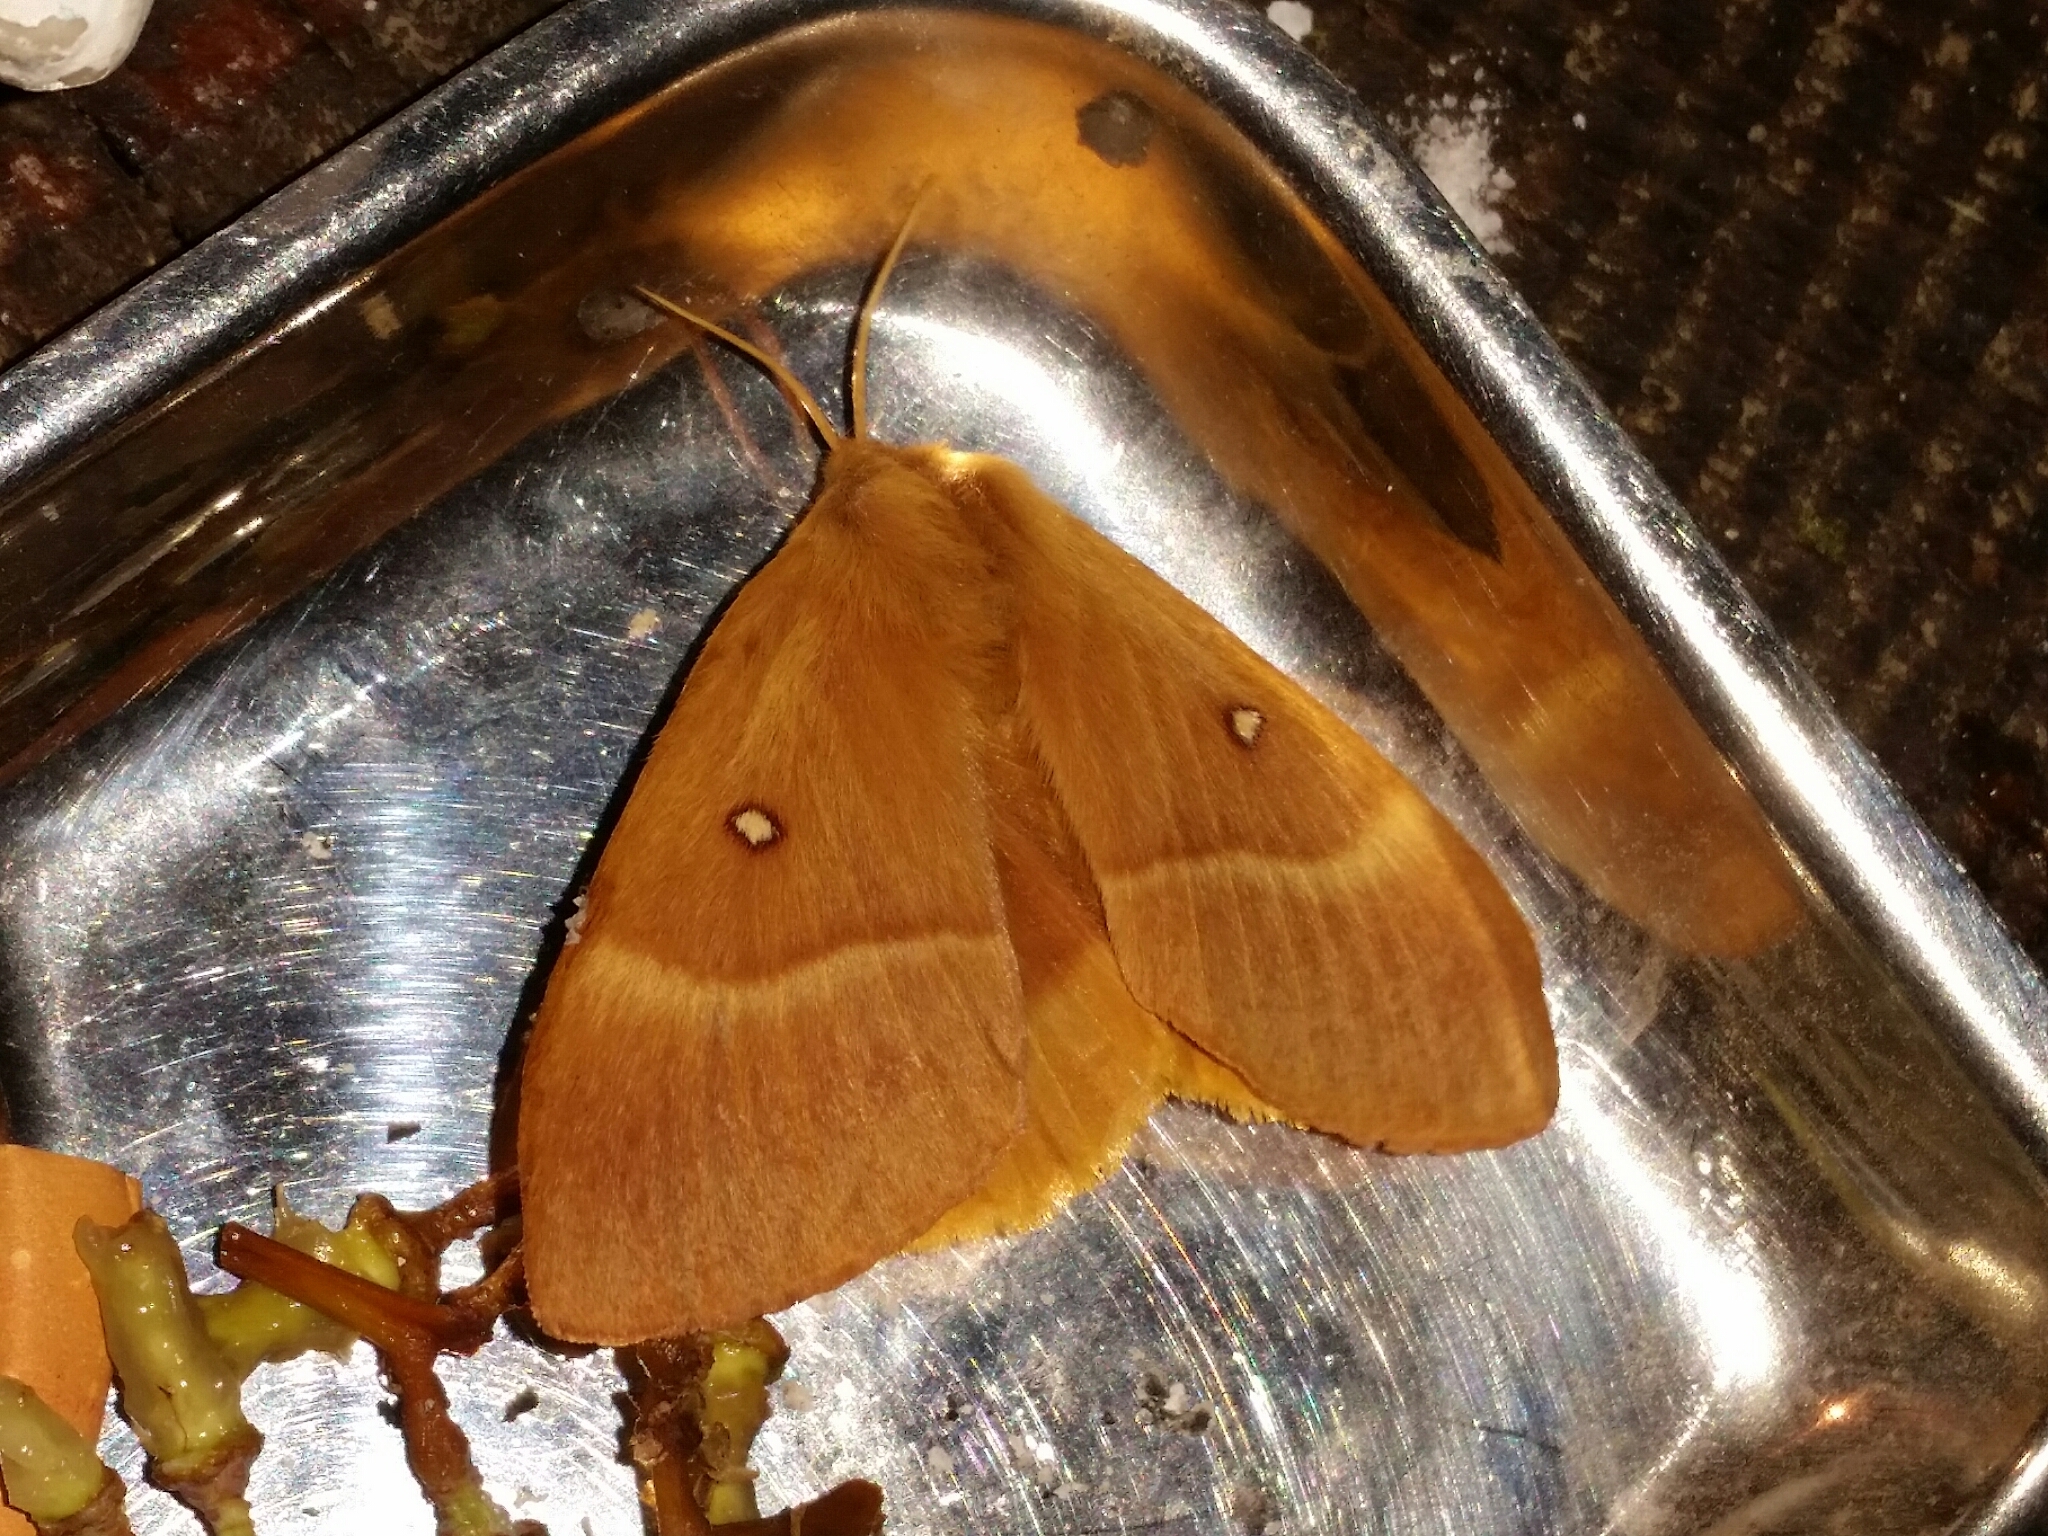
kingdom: Animalia
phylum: Arthropoda
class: Insecta
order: Lepidoptera
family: Lasiocampidae
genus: Lasiocampa
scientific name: Lasiocampa quercus
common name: Oak eggar
